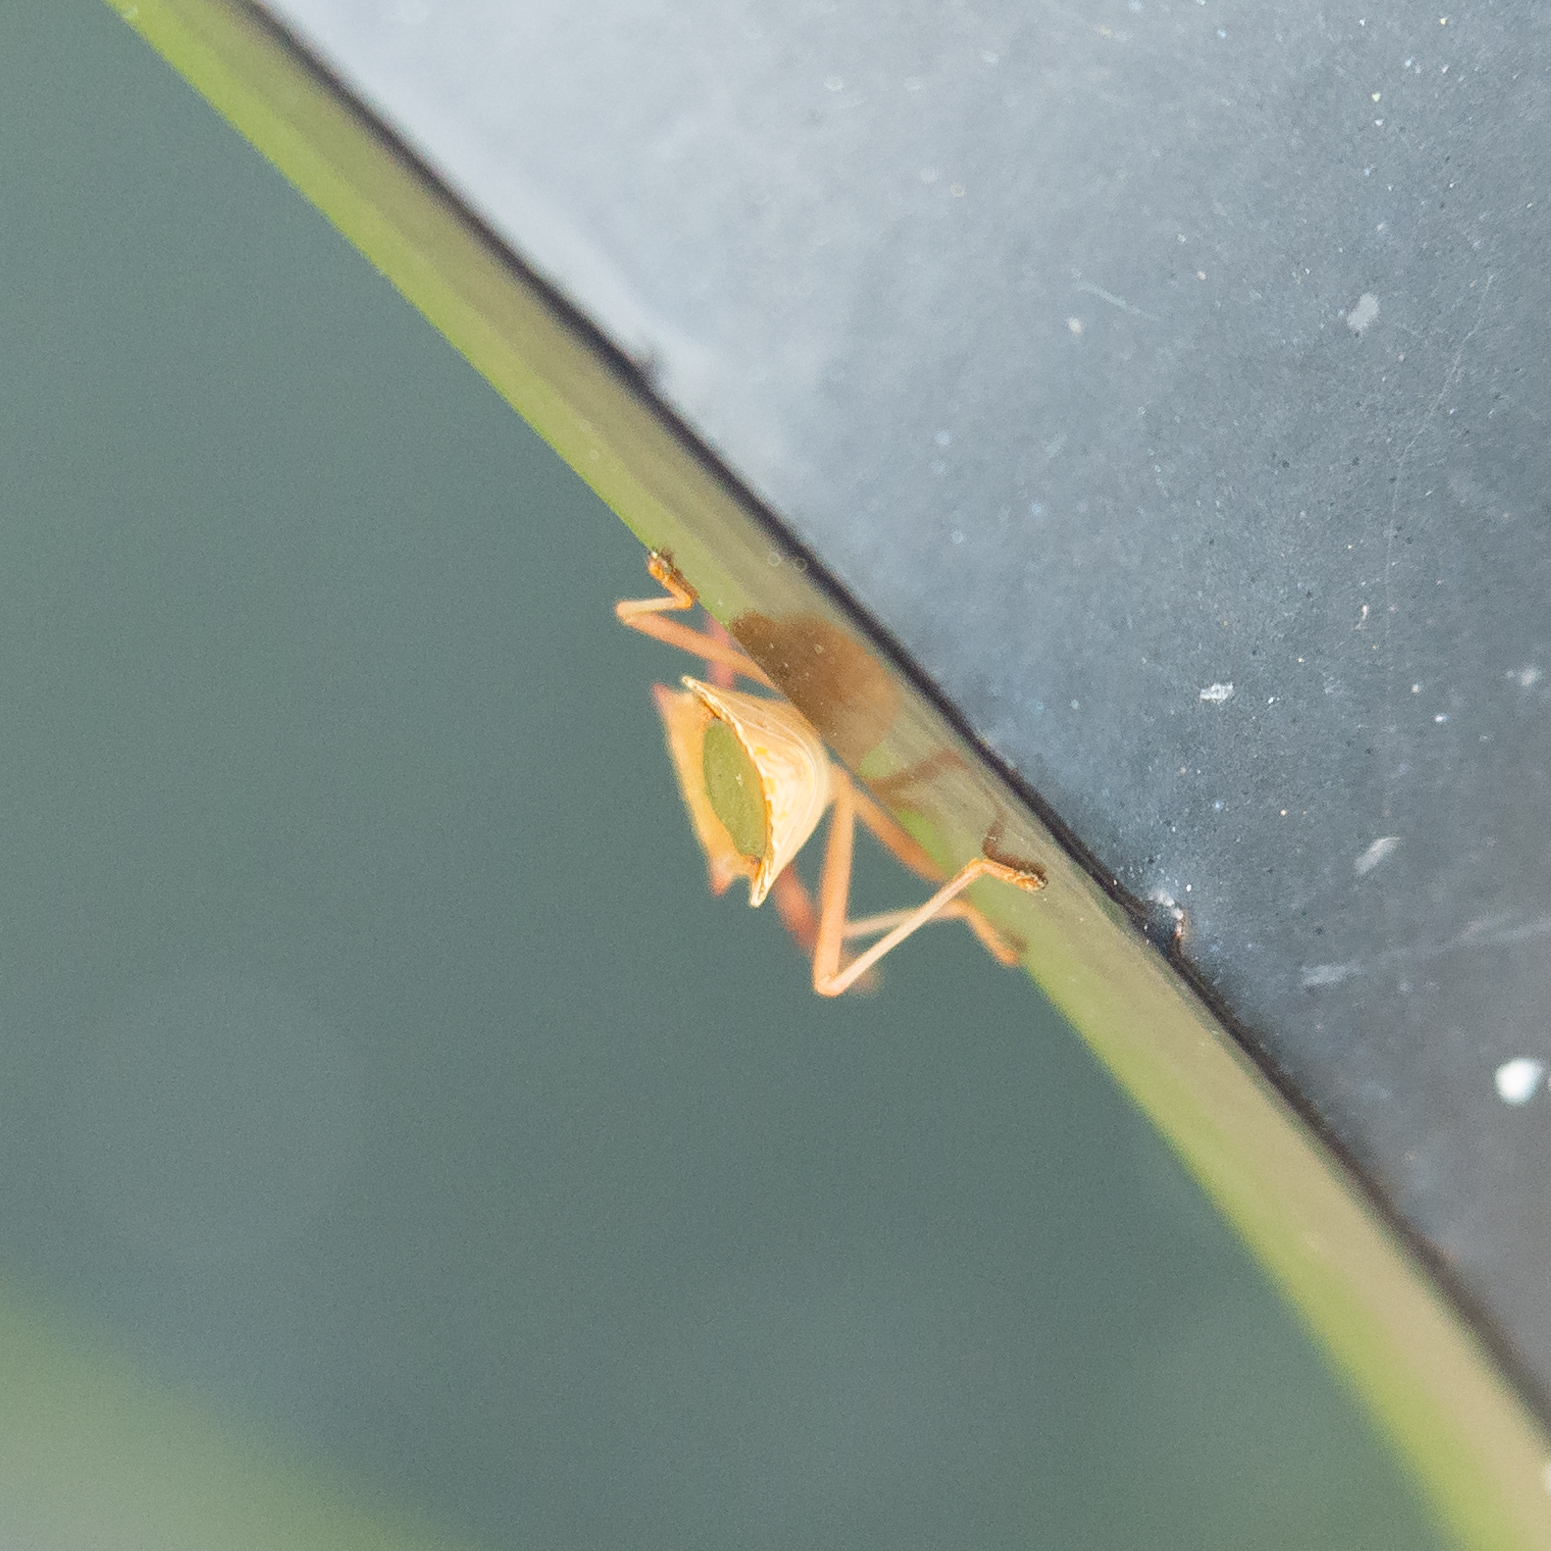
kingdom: Animalia
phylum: Arthropoda
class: Insecta
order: Hemiptera
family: Coreidae
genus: Gonocerus
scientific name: Gonocerus acuteangulatus
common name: Box bug
